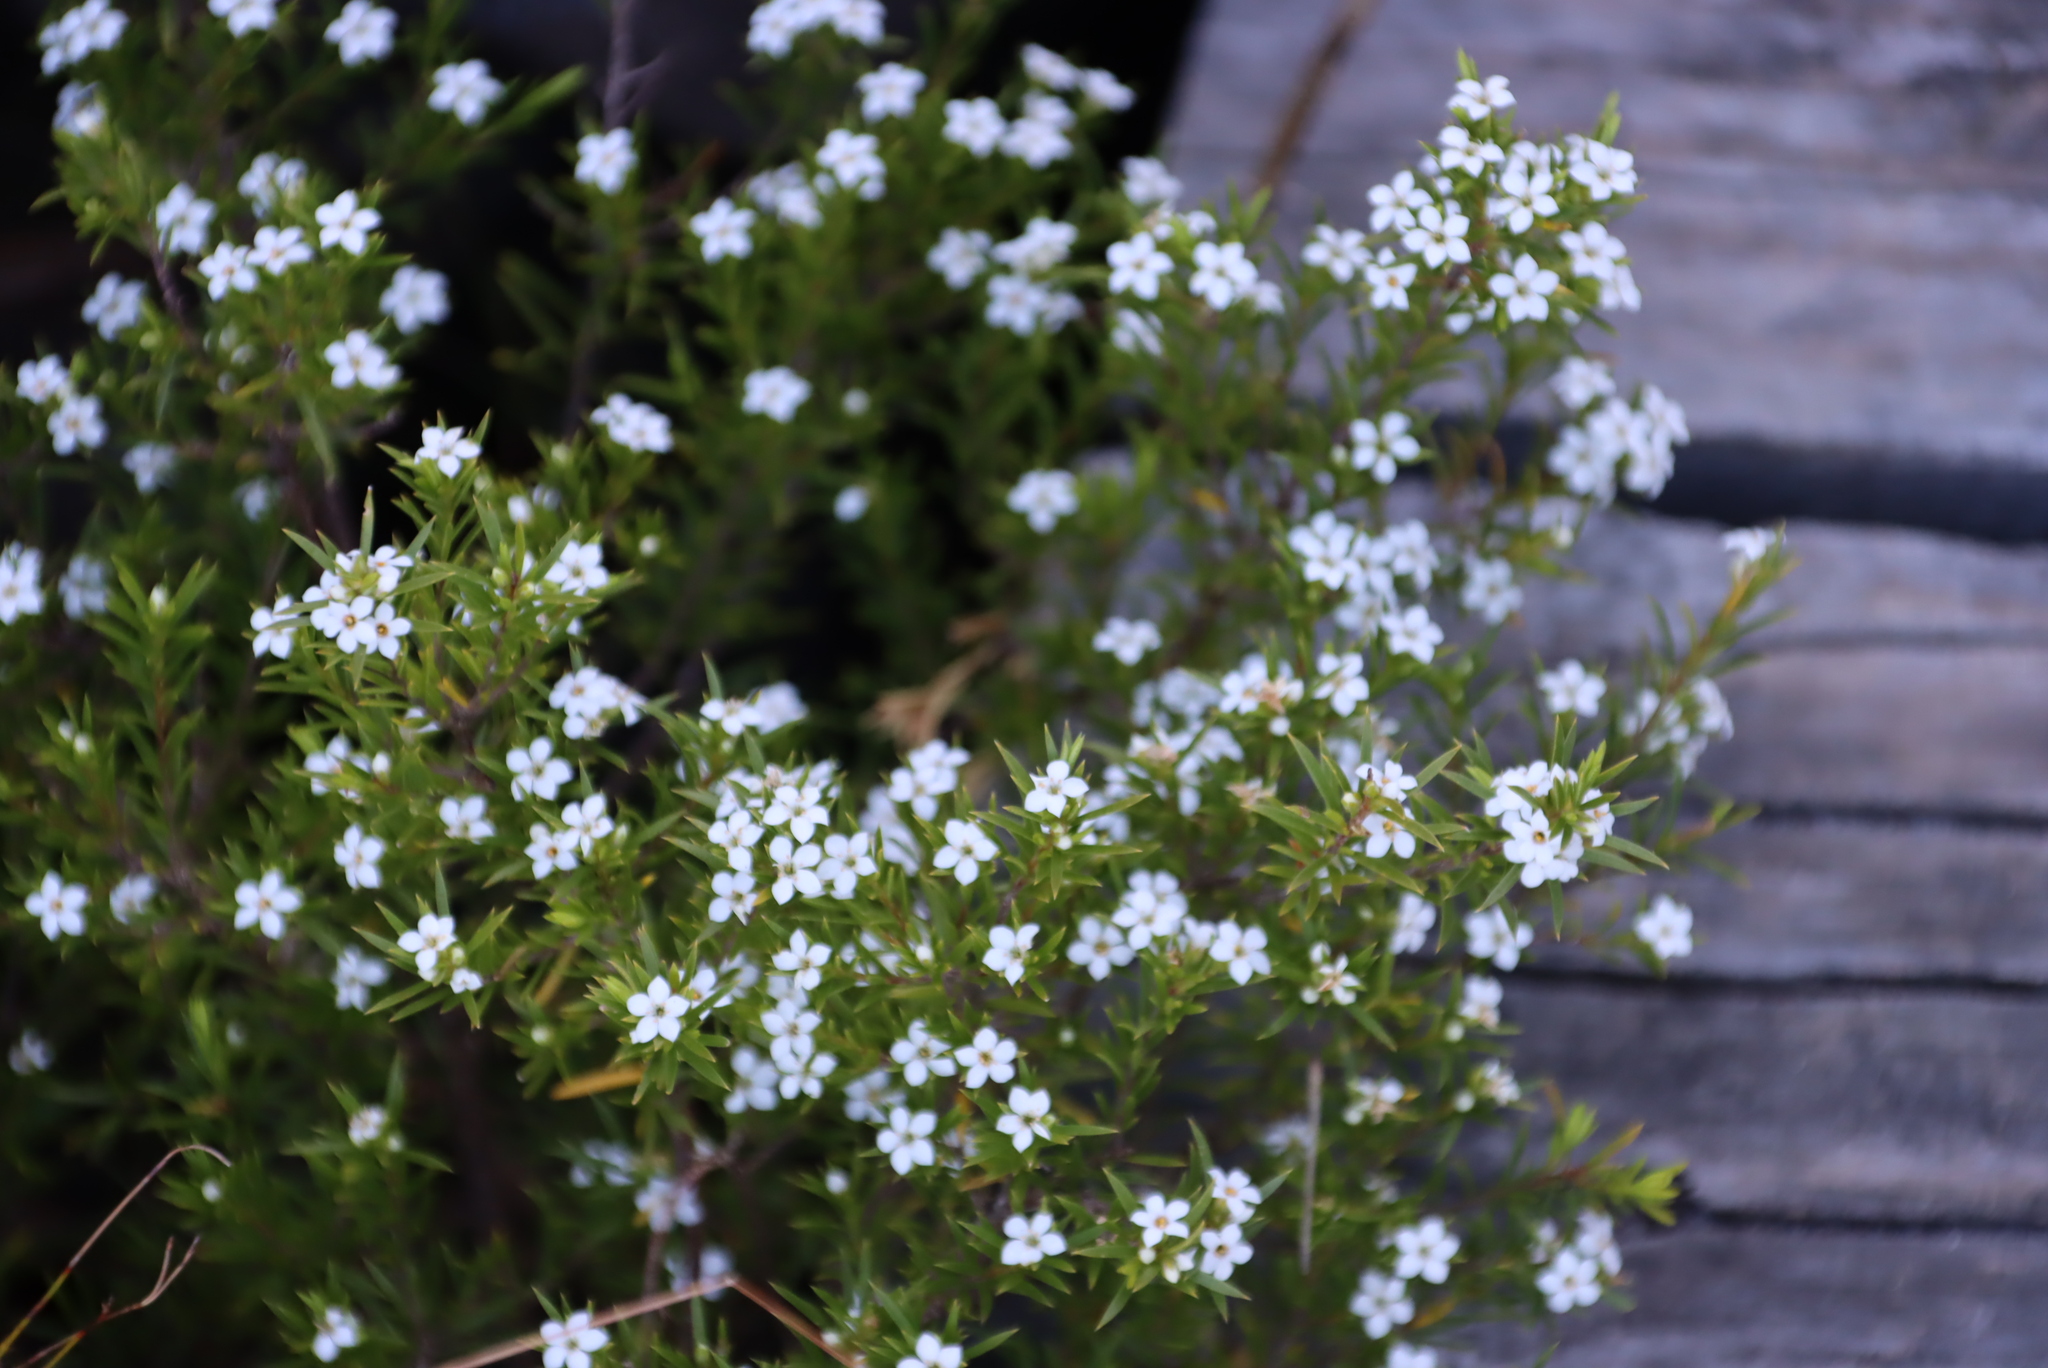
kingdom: Plantae
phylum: Tracheophyta
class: Magnoliopsida
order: Sapindales
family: Rutaceae
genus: Coleonema
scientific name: Coleonema album
